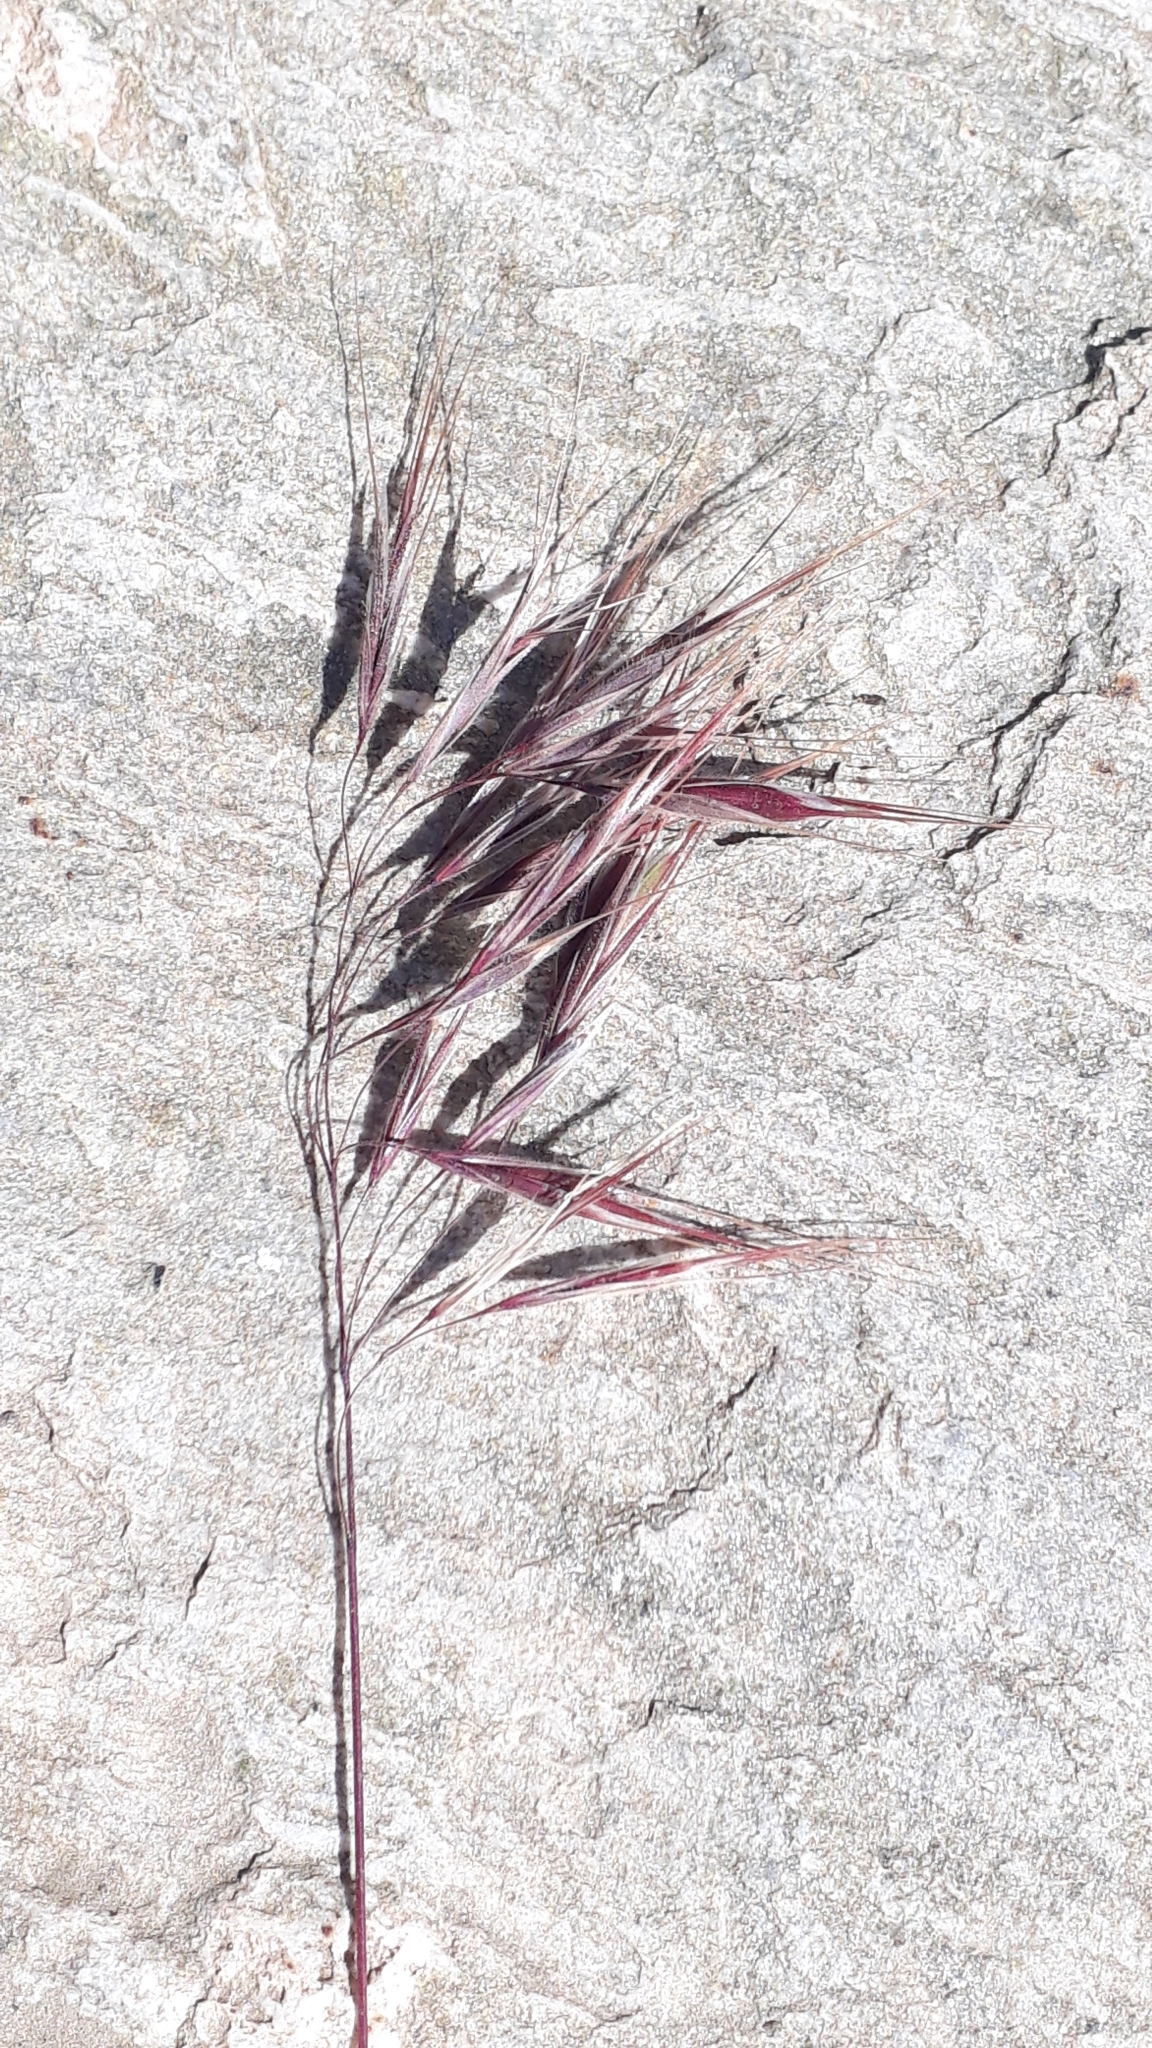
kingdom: Plantae
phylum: Tracheophyta
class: Liliopsida
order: Poales
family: Poaceae
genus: Bromus
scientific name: Bromus tectorum
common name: Cheatgrass
